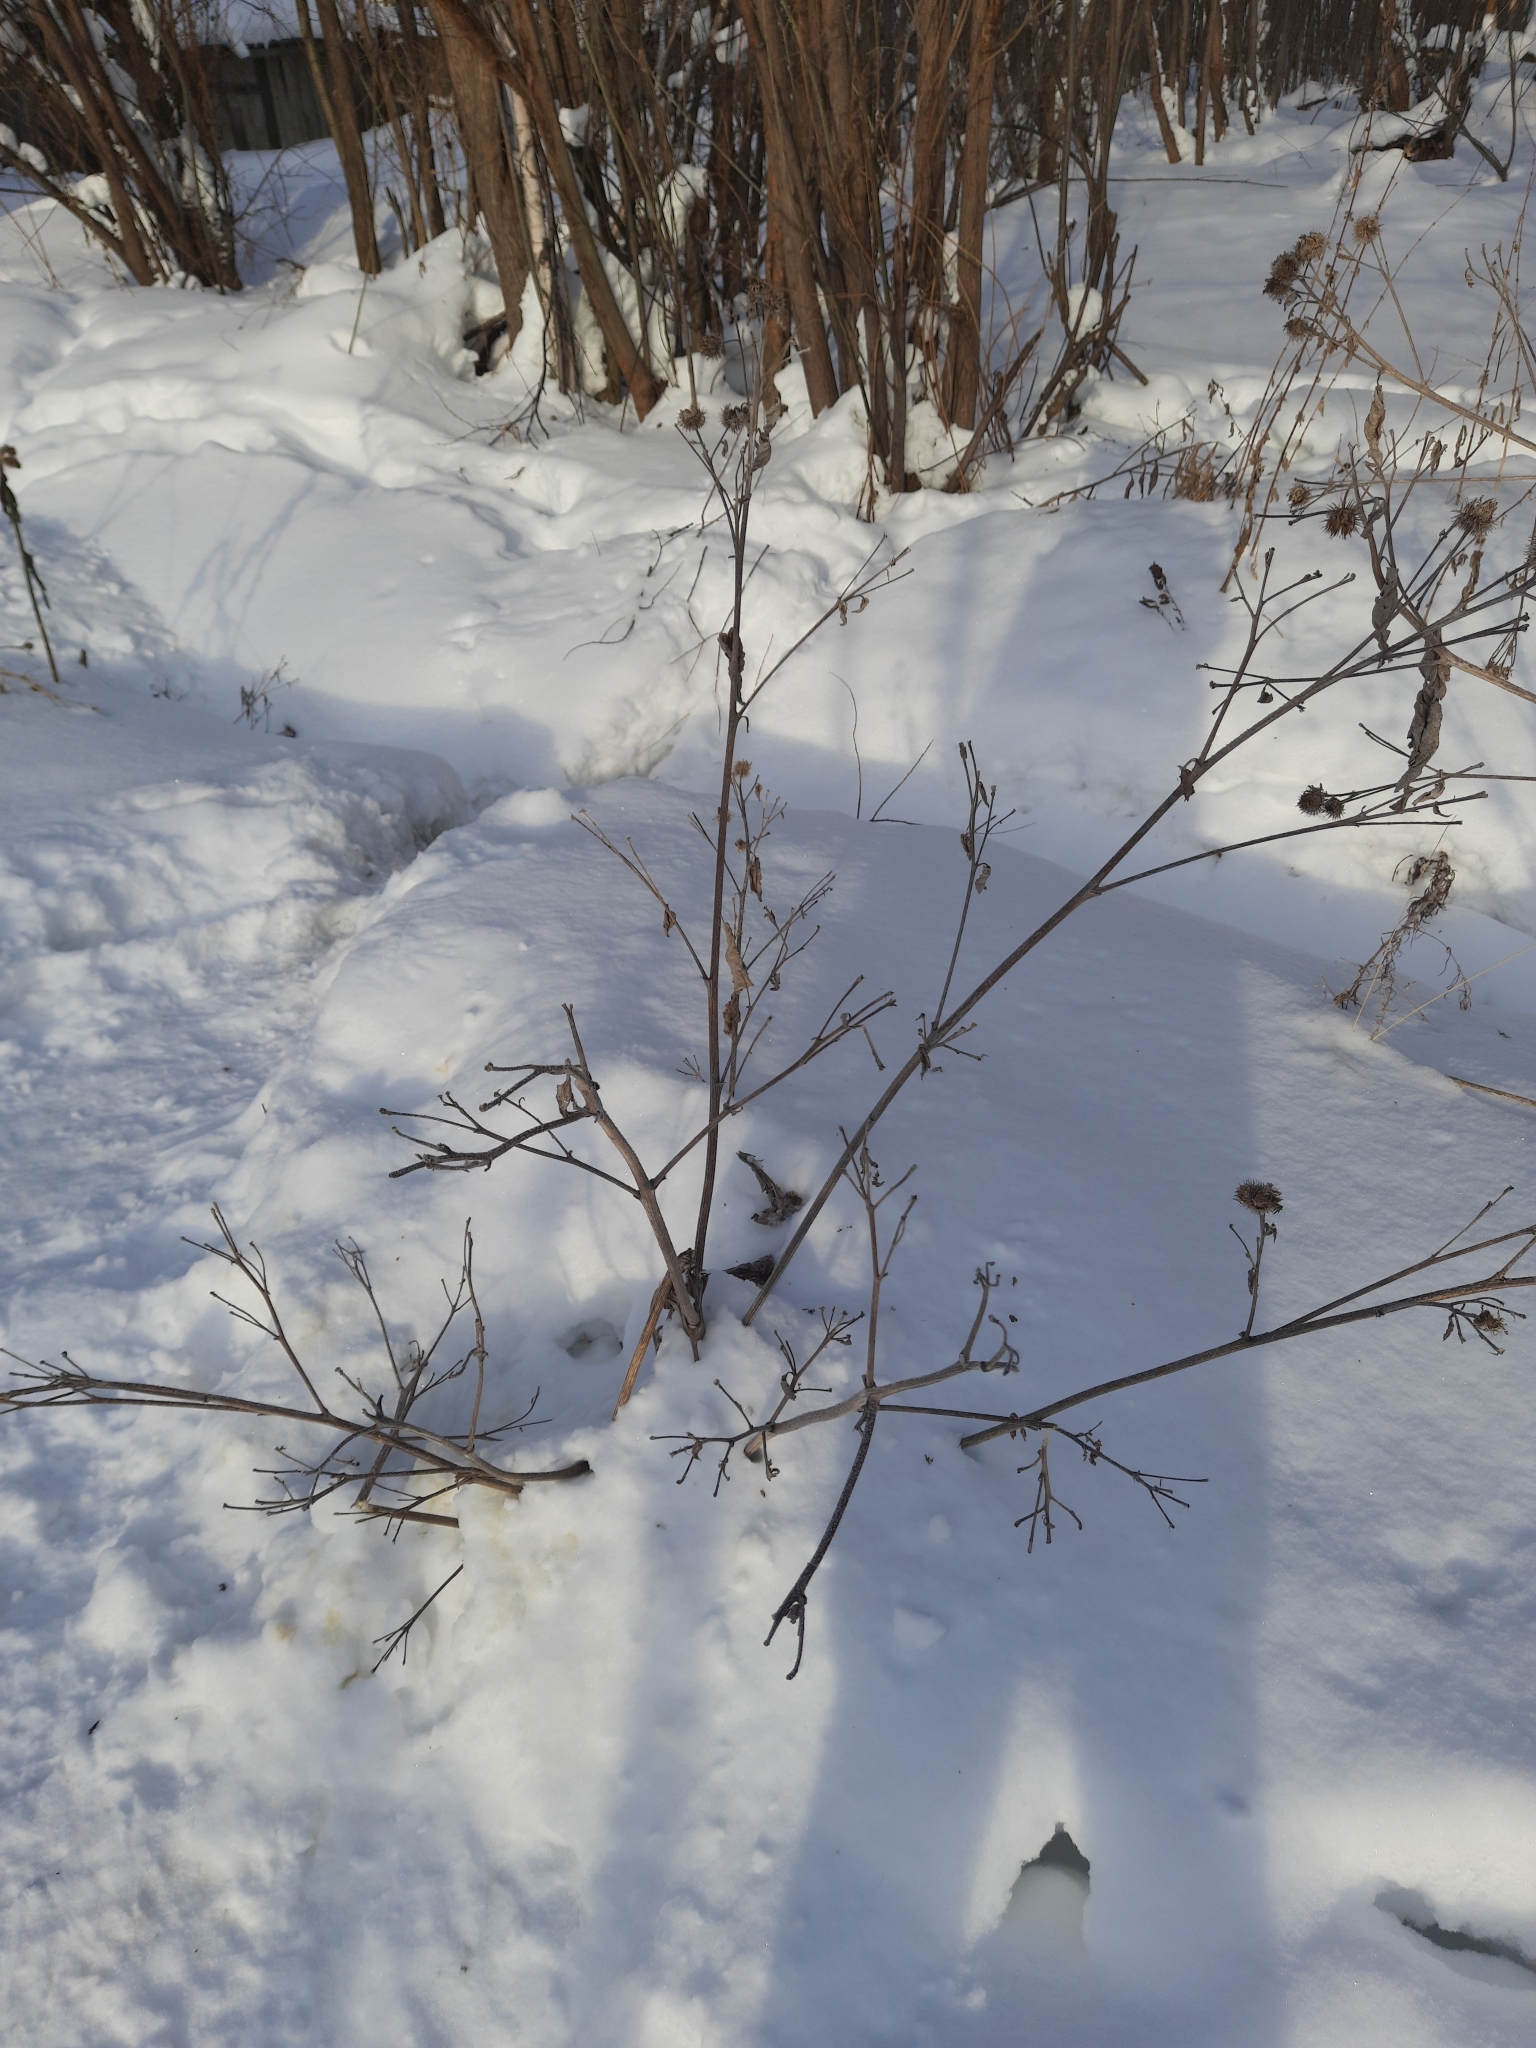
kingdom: Plantae
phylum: Tracheophyta
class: Magnoliopsida
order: Asterales
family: Asteraceae
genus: Arctium
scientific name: Arctium tomentosum
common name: Woolly burdock
